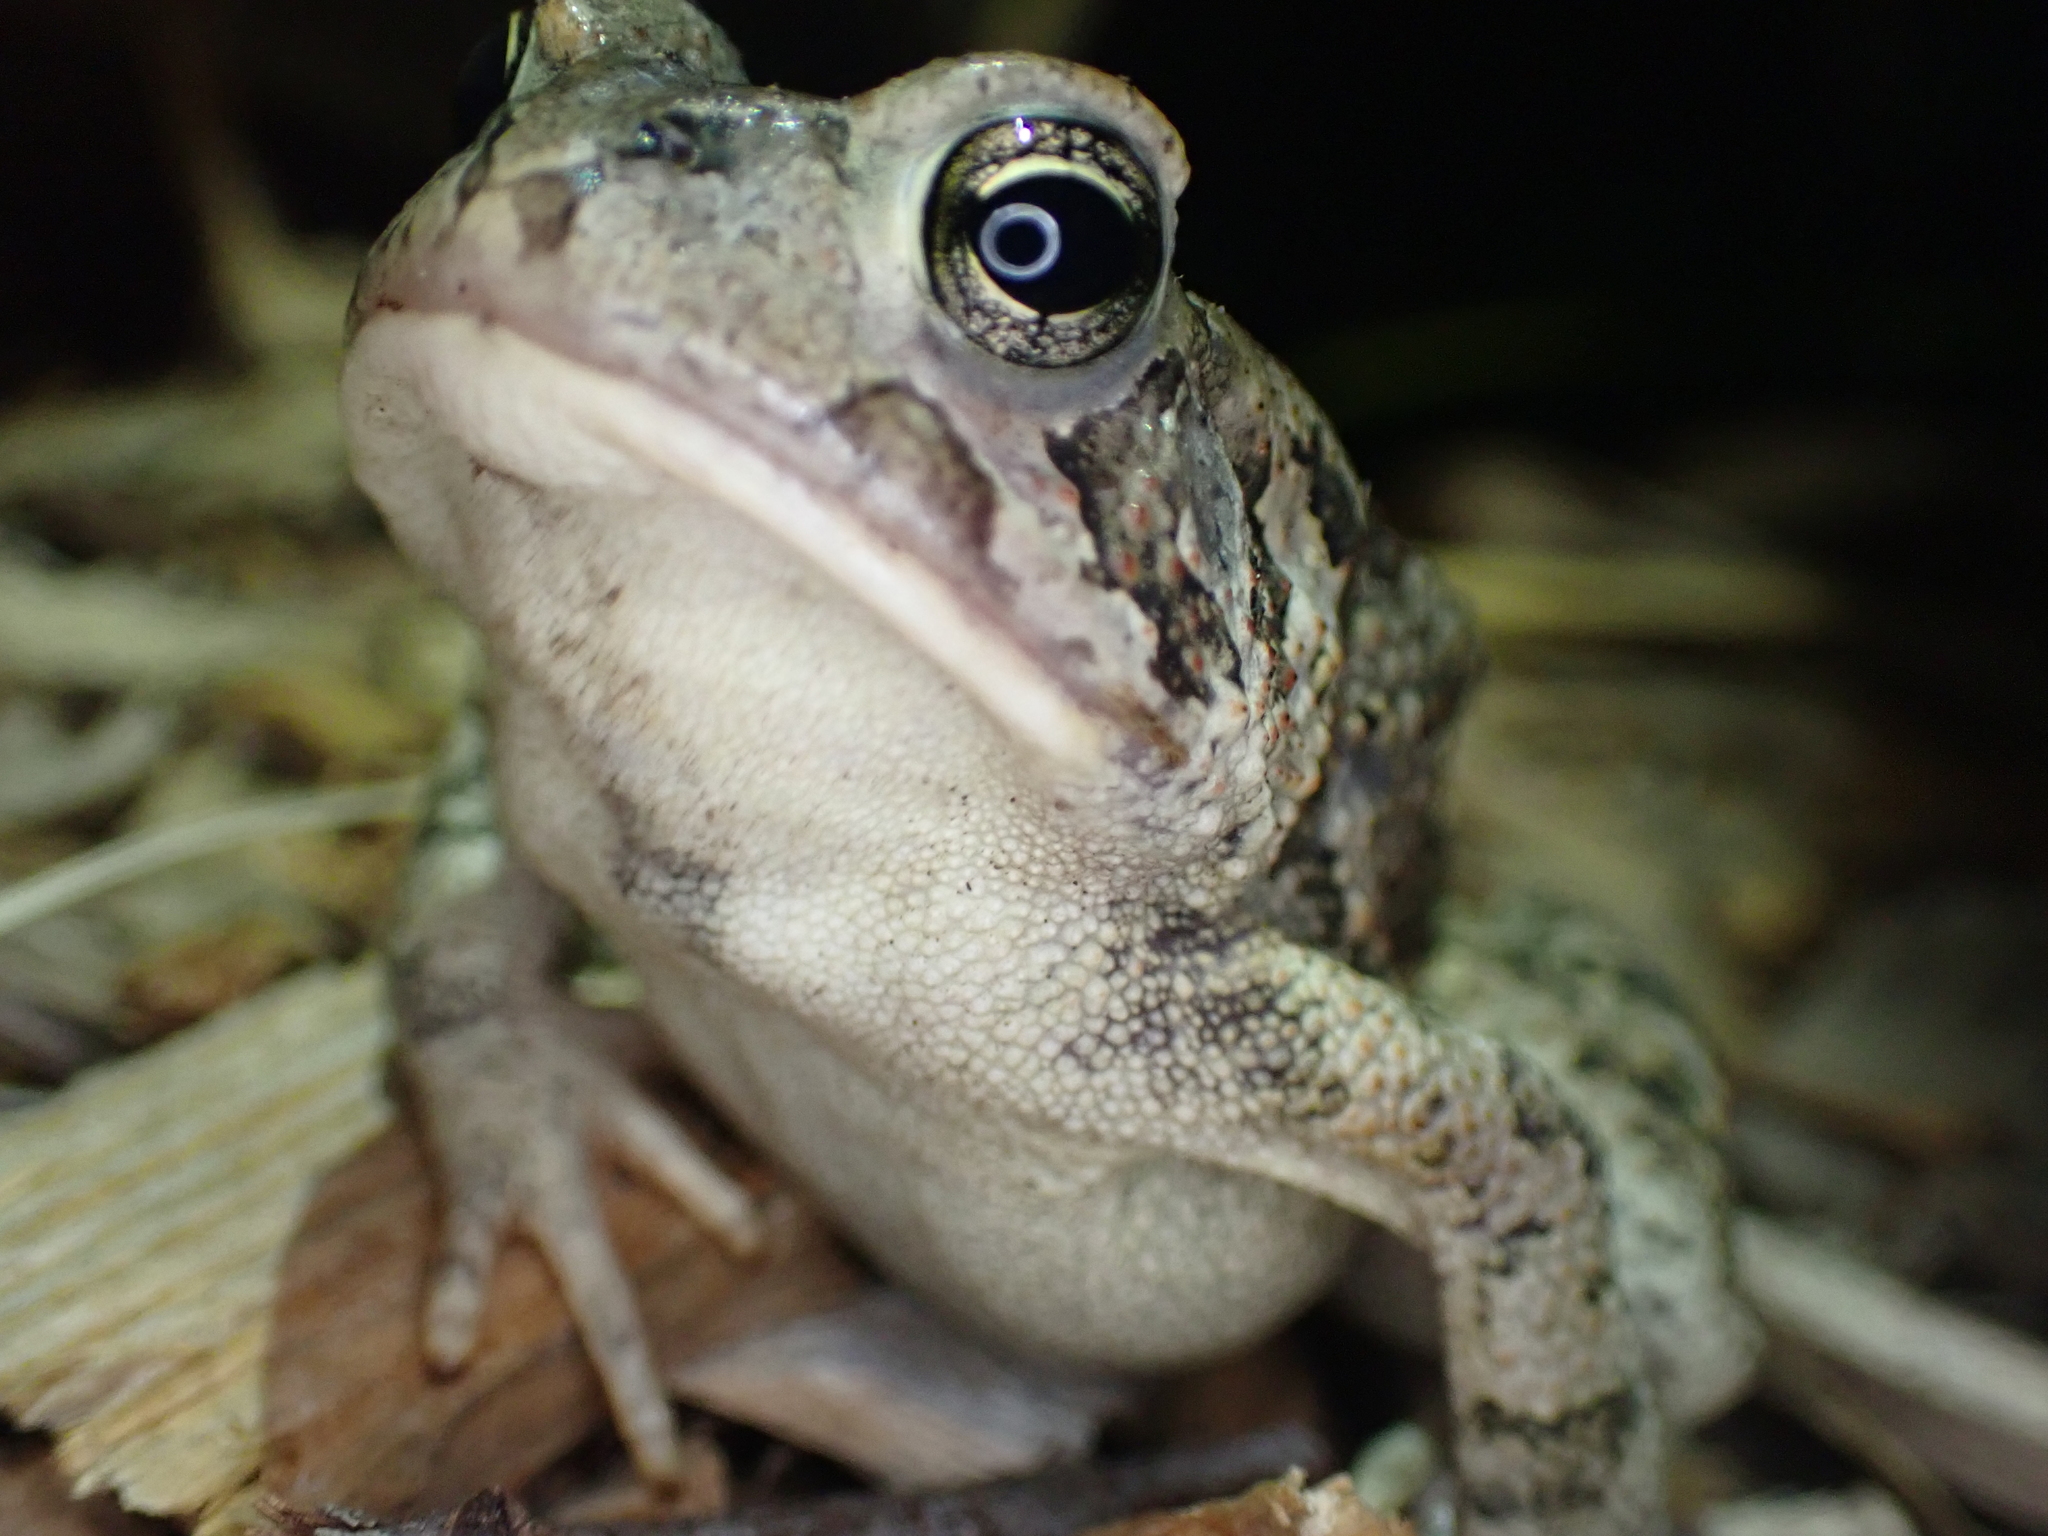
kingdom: Animalia
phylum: Chordata
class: Amphibia
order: Anura
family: Bufonidae
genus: Anaxyrus
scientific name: Anaxyrus fowleri
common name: Fowler's toad
